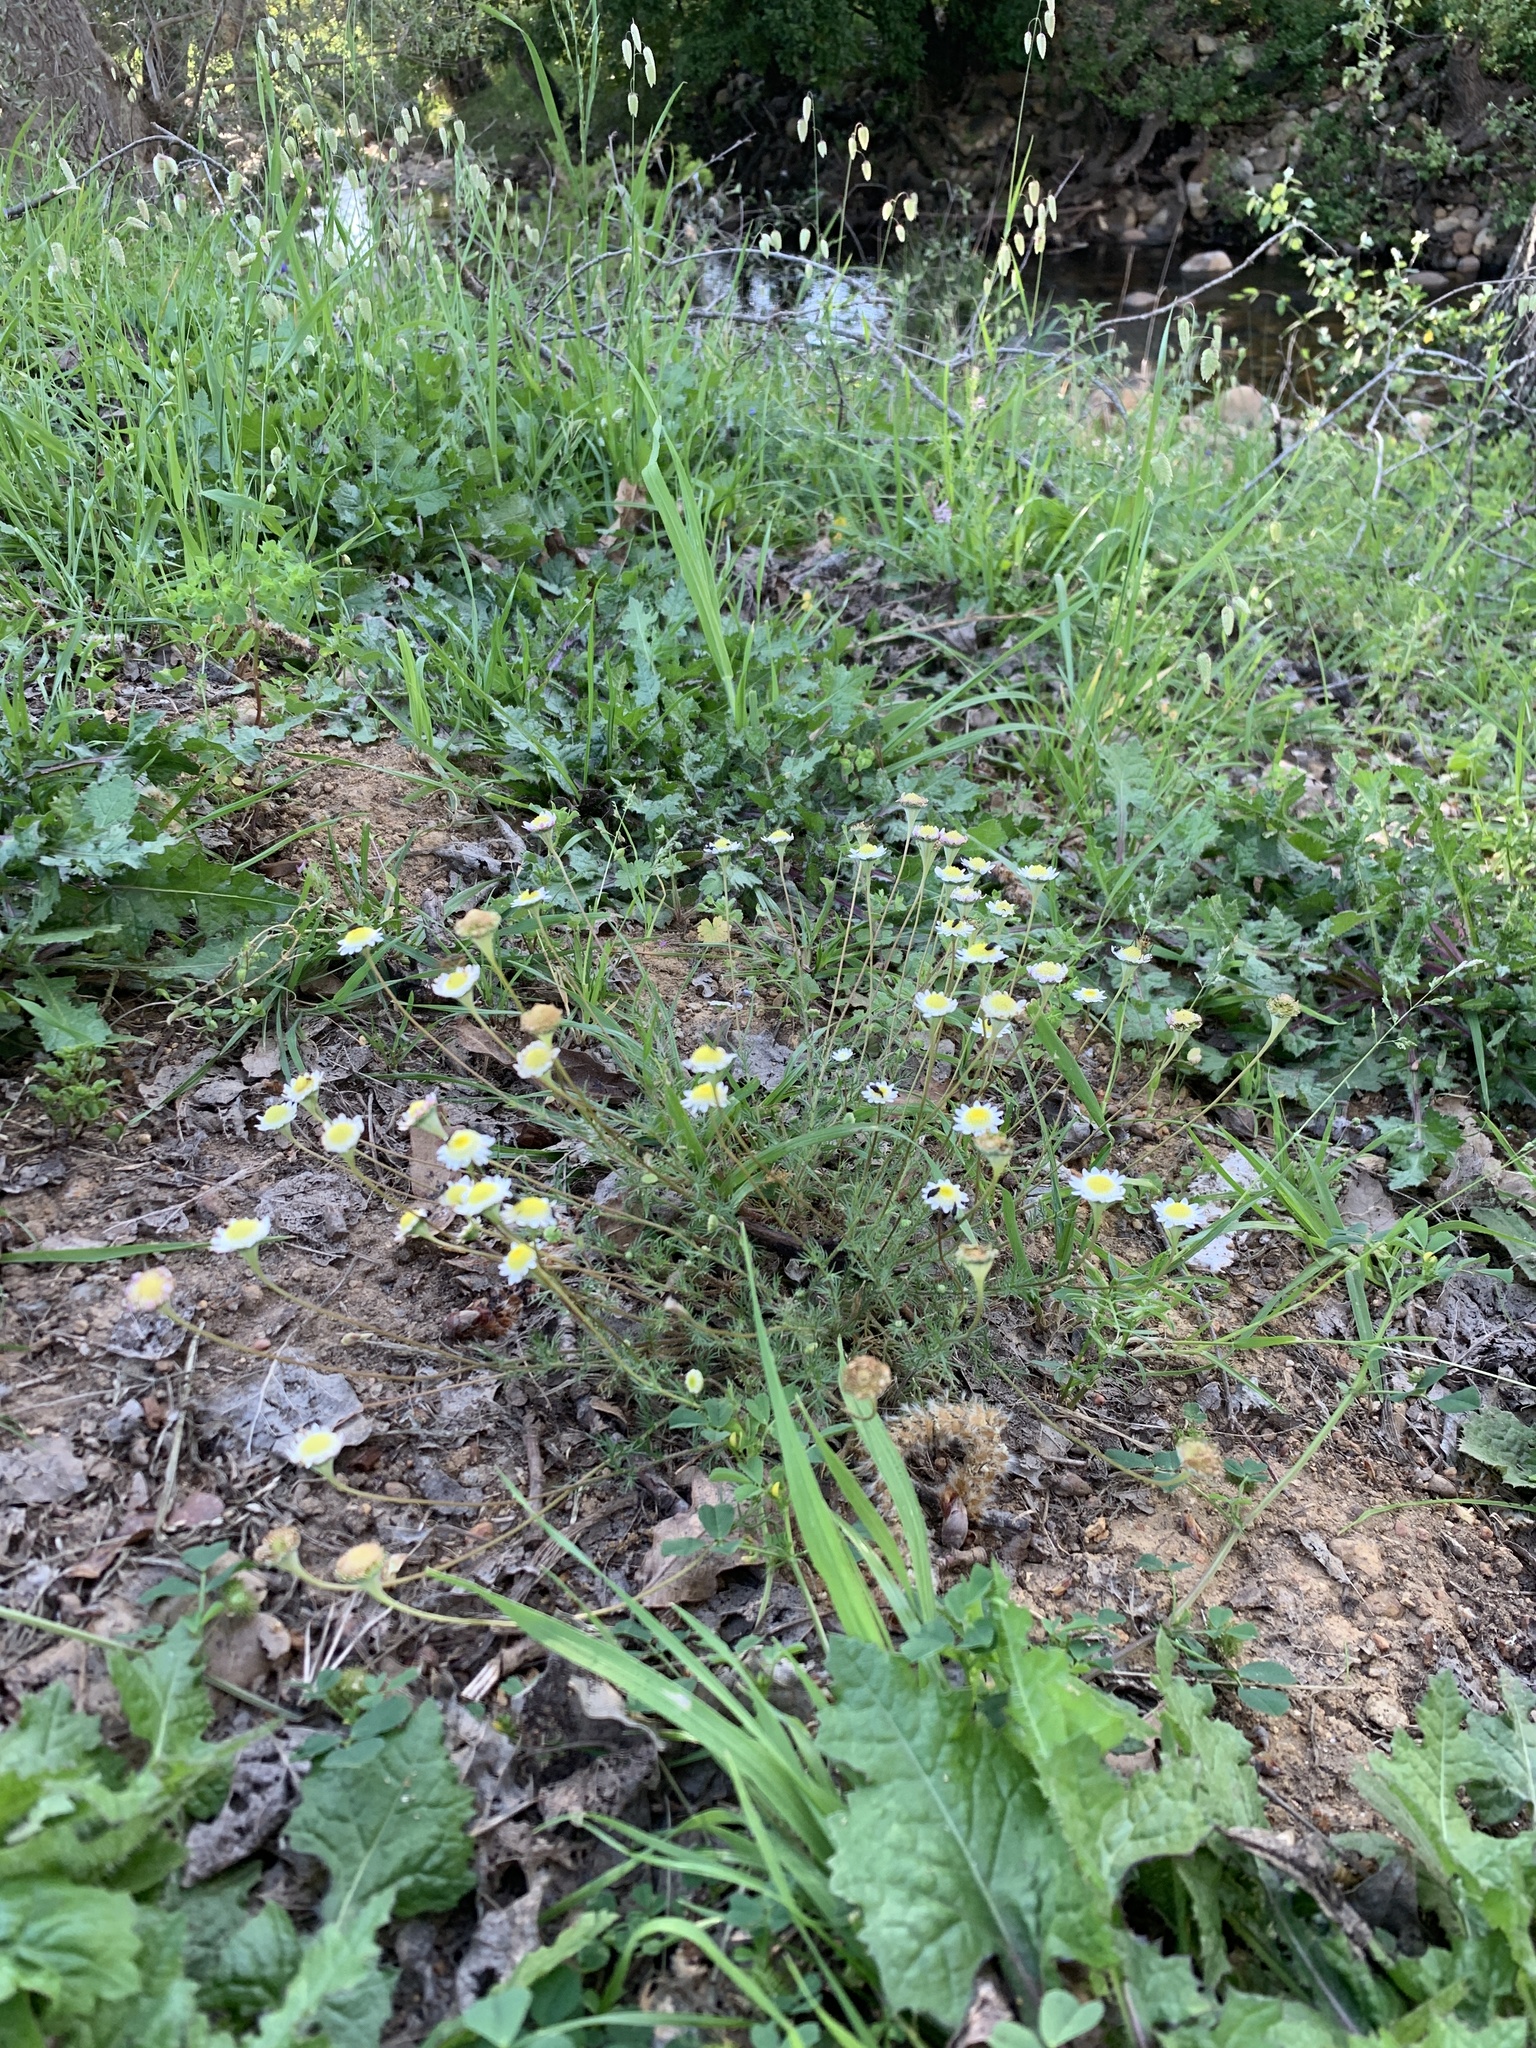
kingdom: Plantae
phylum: Tracheophyta
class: Magnoliopsida
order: Asterales
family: Asteraceae
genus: Cotula
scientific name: Cotula turbinata
